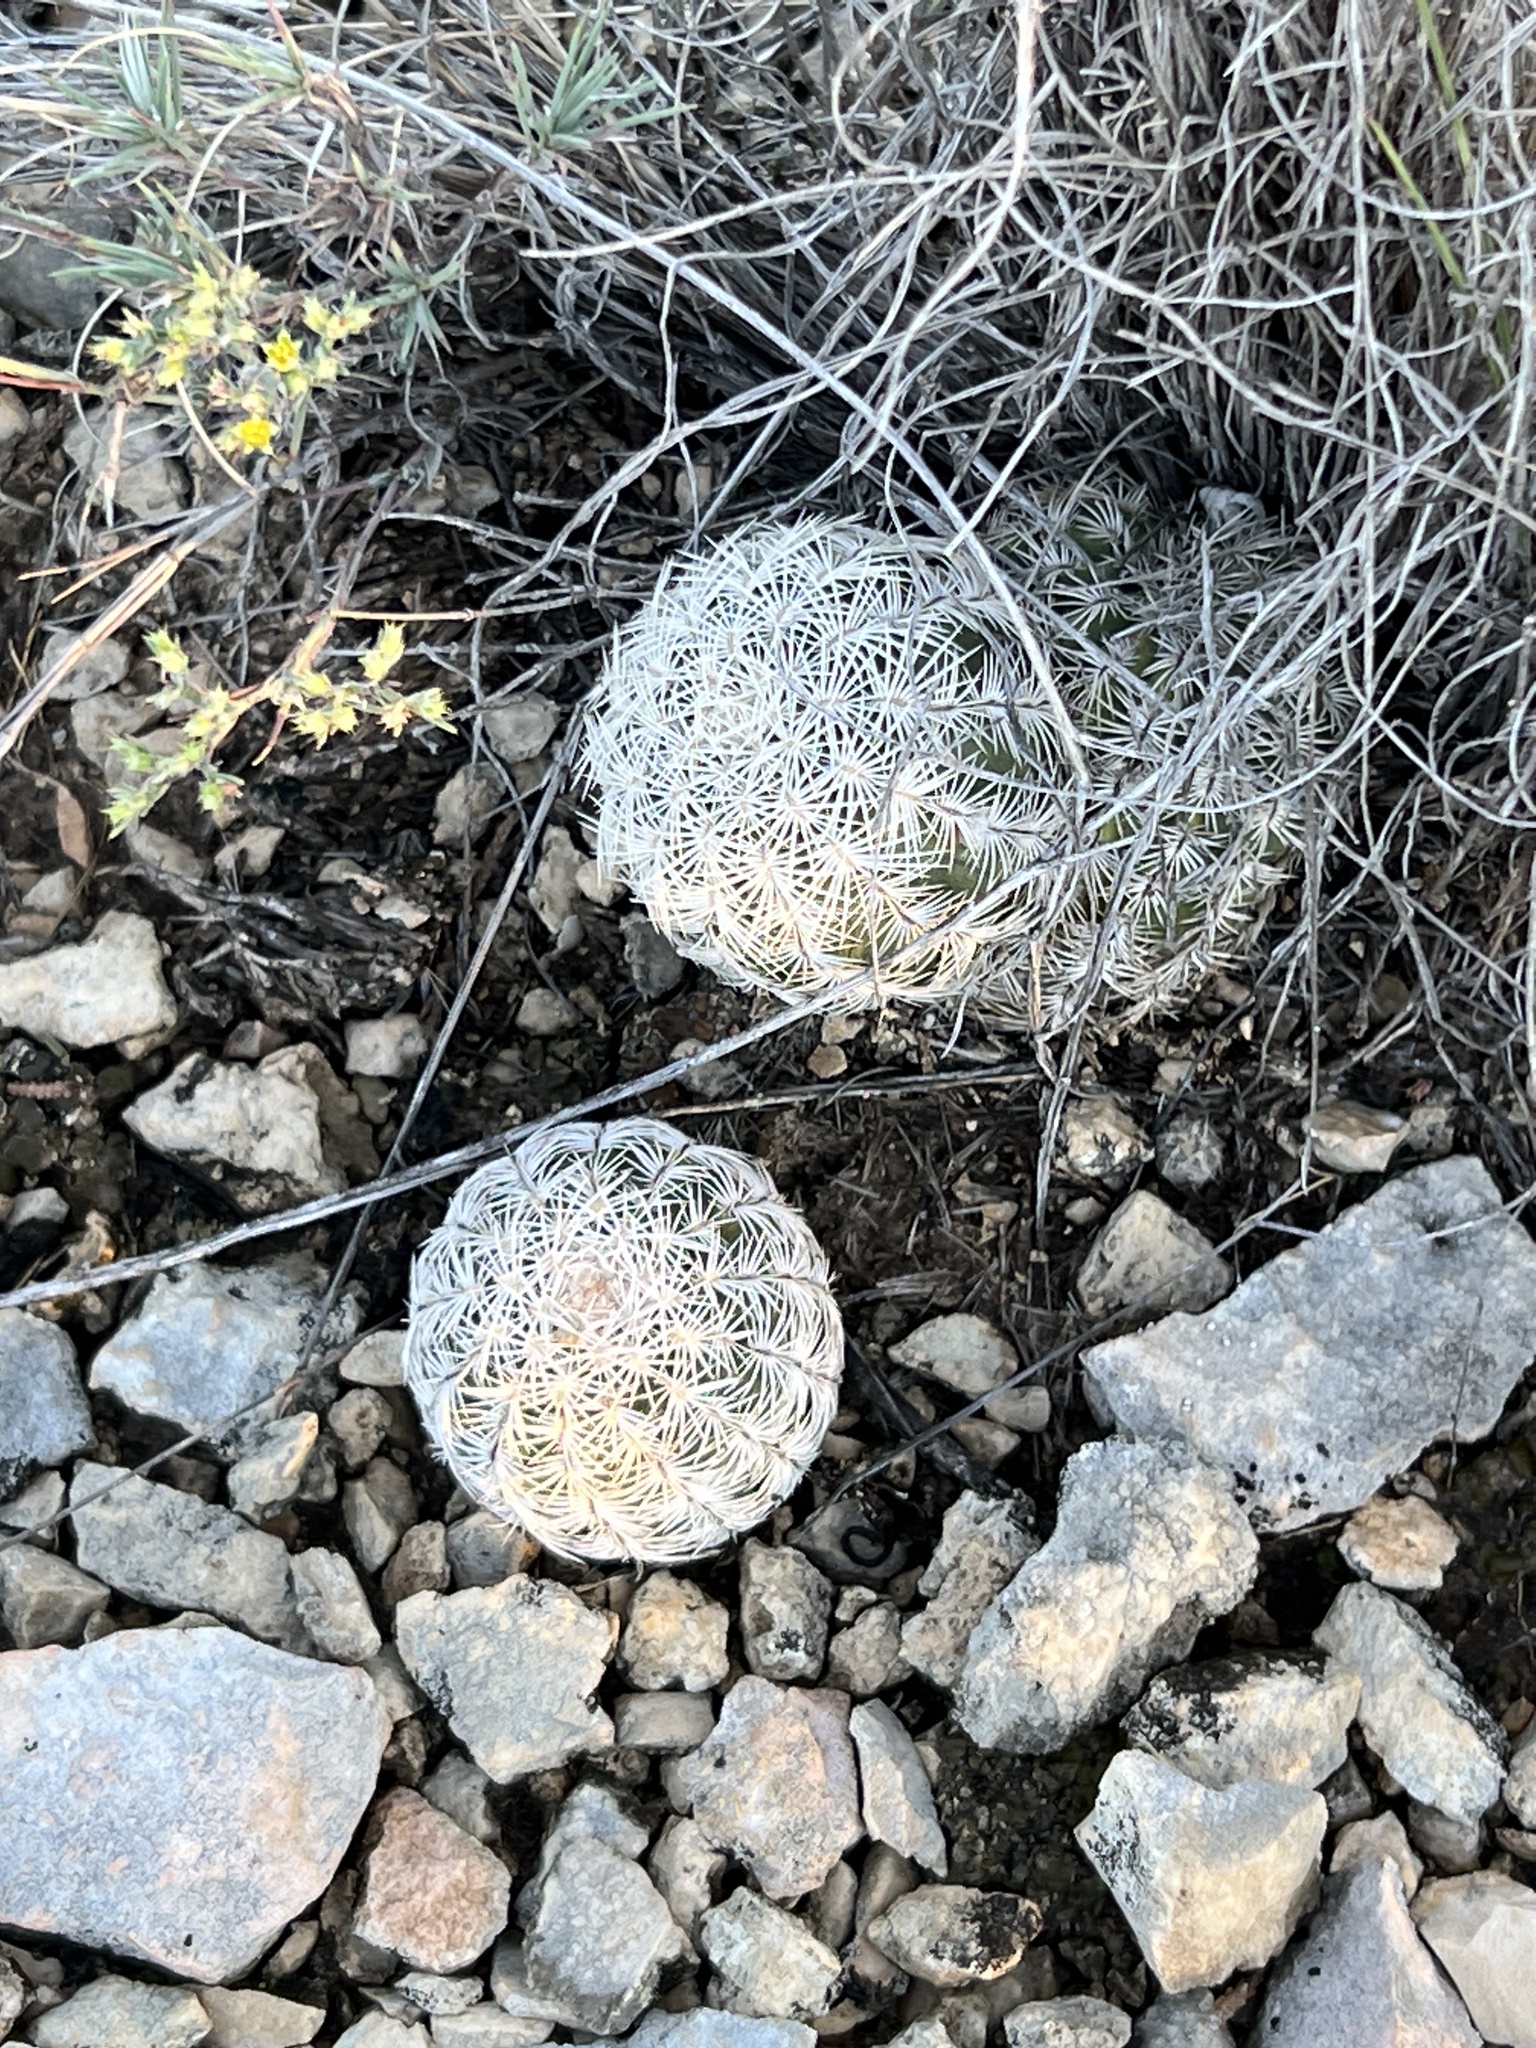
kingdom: Plantae
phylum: Tracheophyta
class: Magnoliopsida
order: Caryophyllales
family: Cactaceae
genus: Echinocereus
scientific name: Echinocereus reichenbachii
